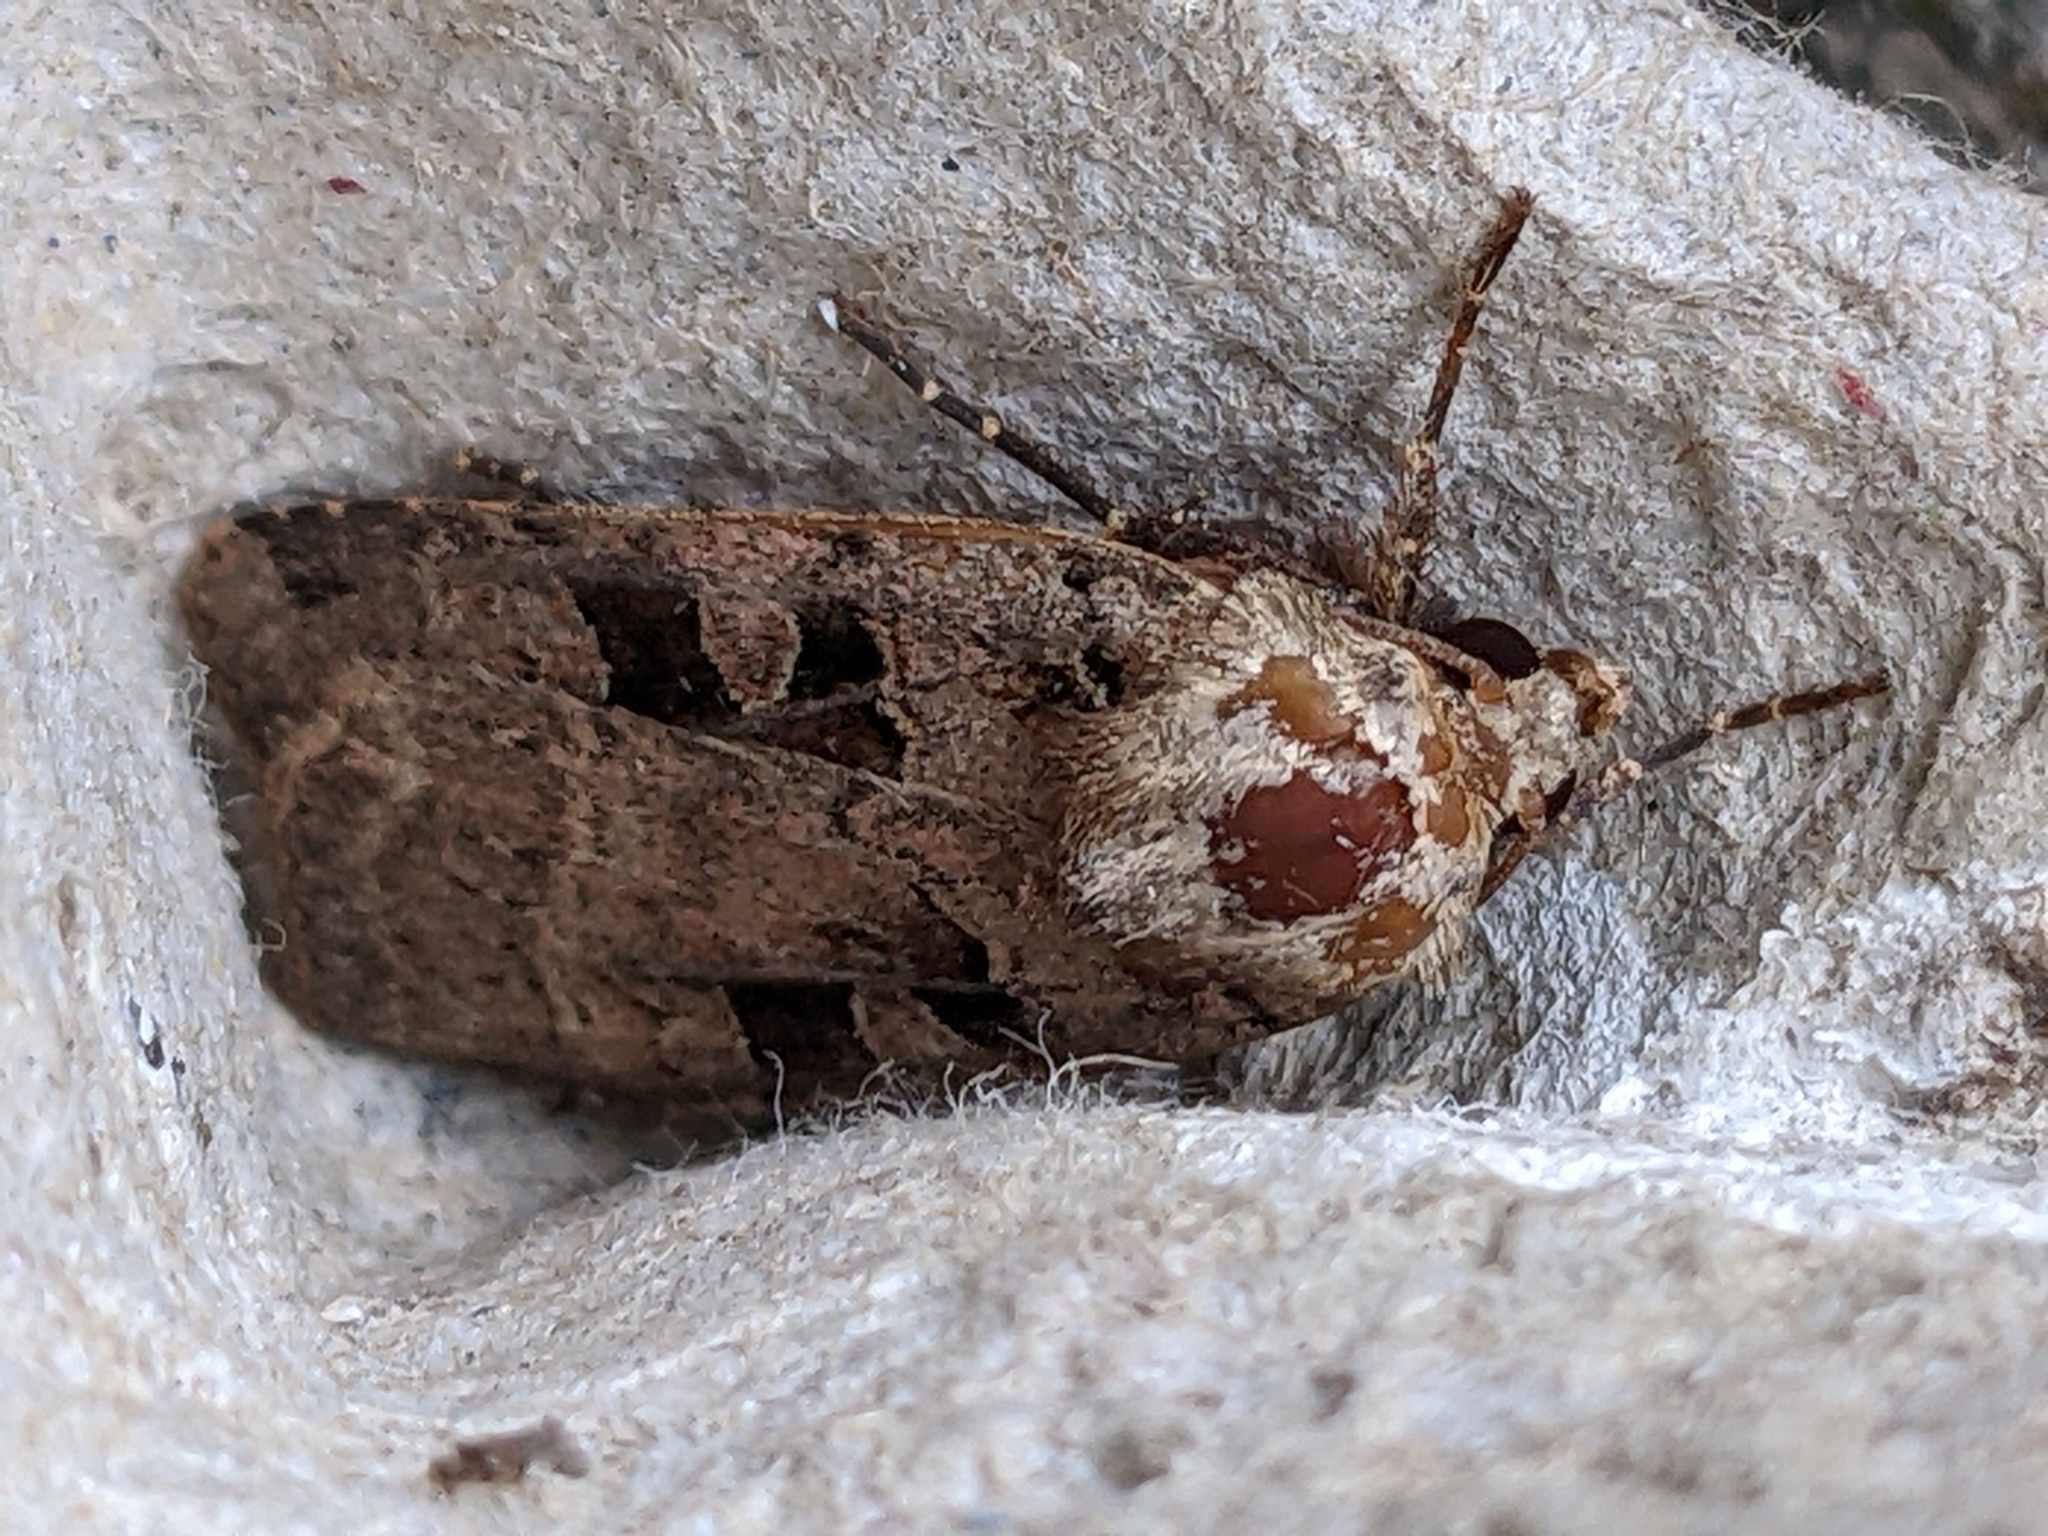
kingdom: Animalia
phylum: Arthropoda
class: Insecta
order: Lepidoptera
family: Noctuidae
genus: Xestia
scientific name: Xestia triangulum
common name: Double square-spot
